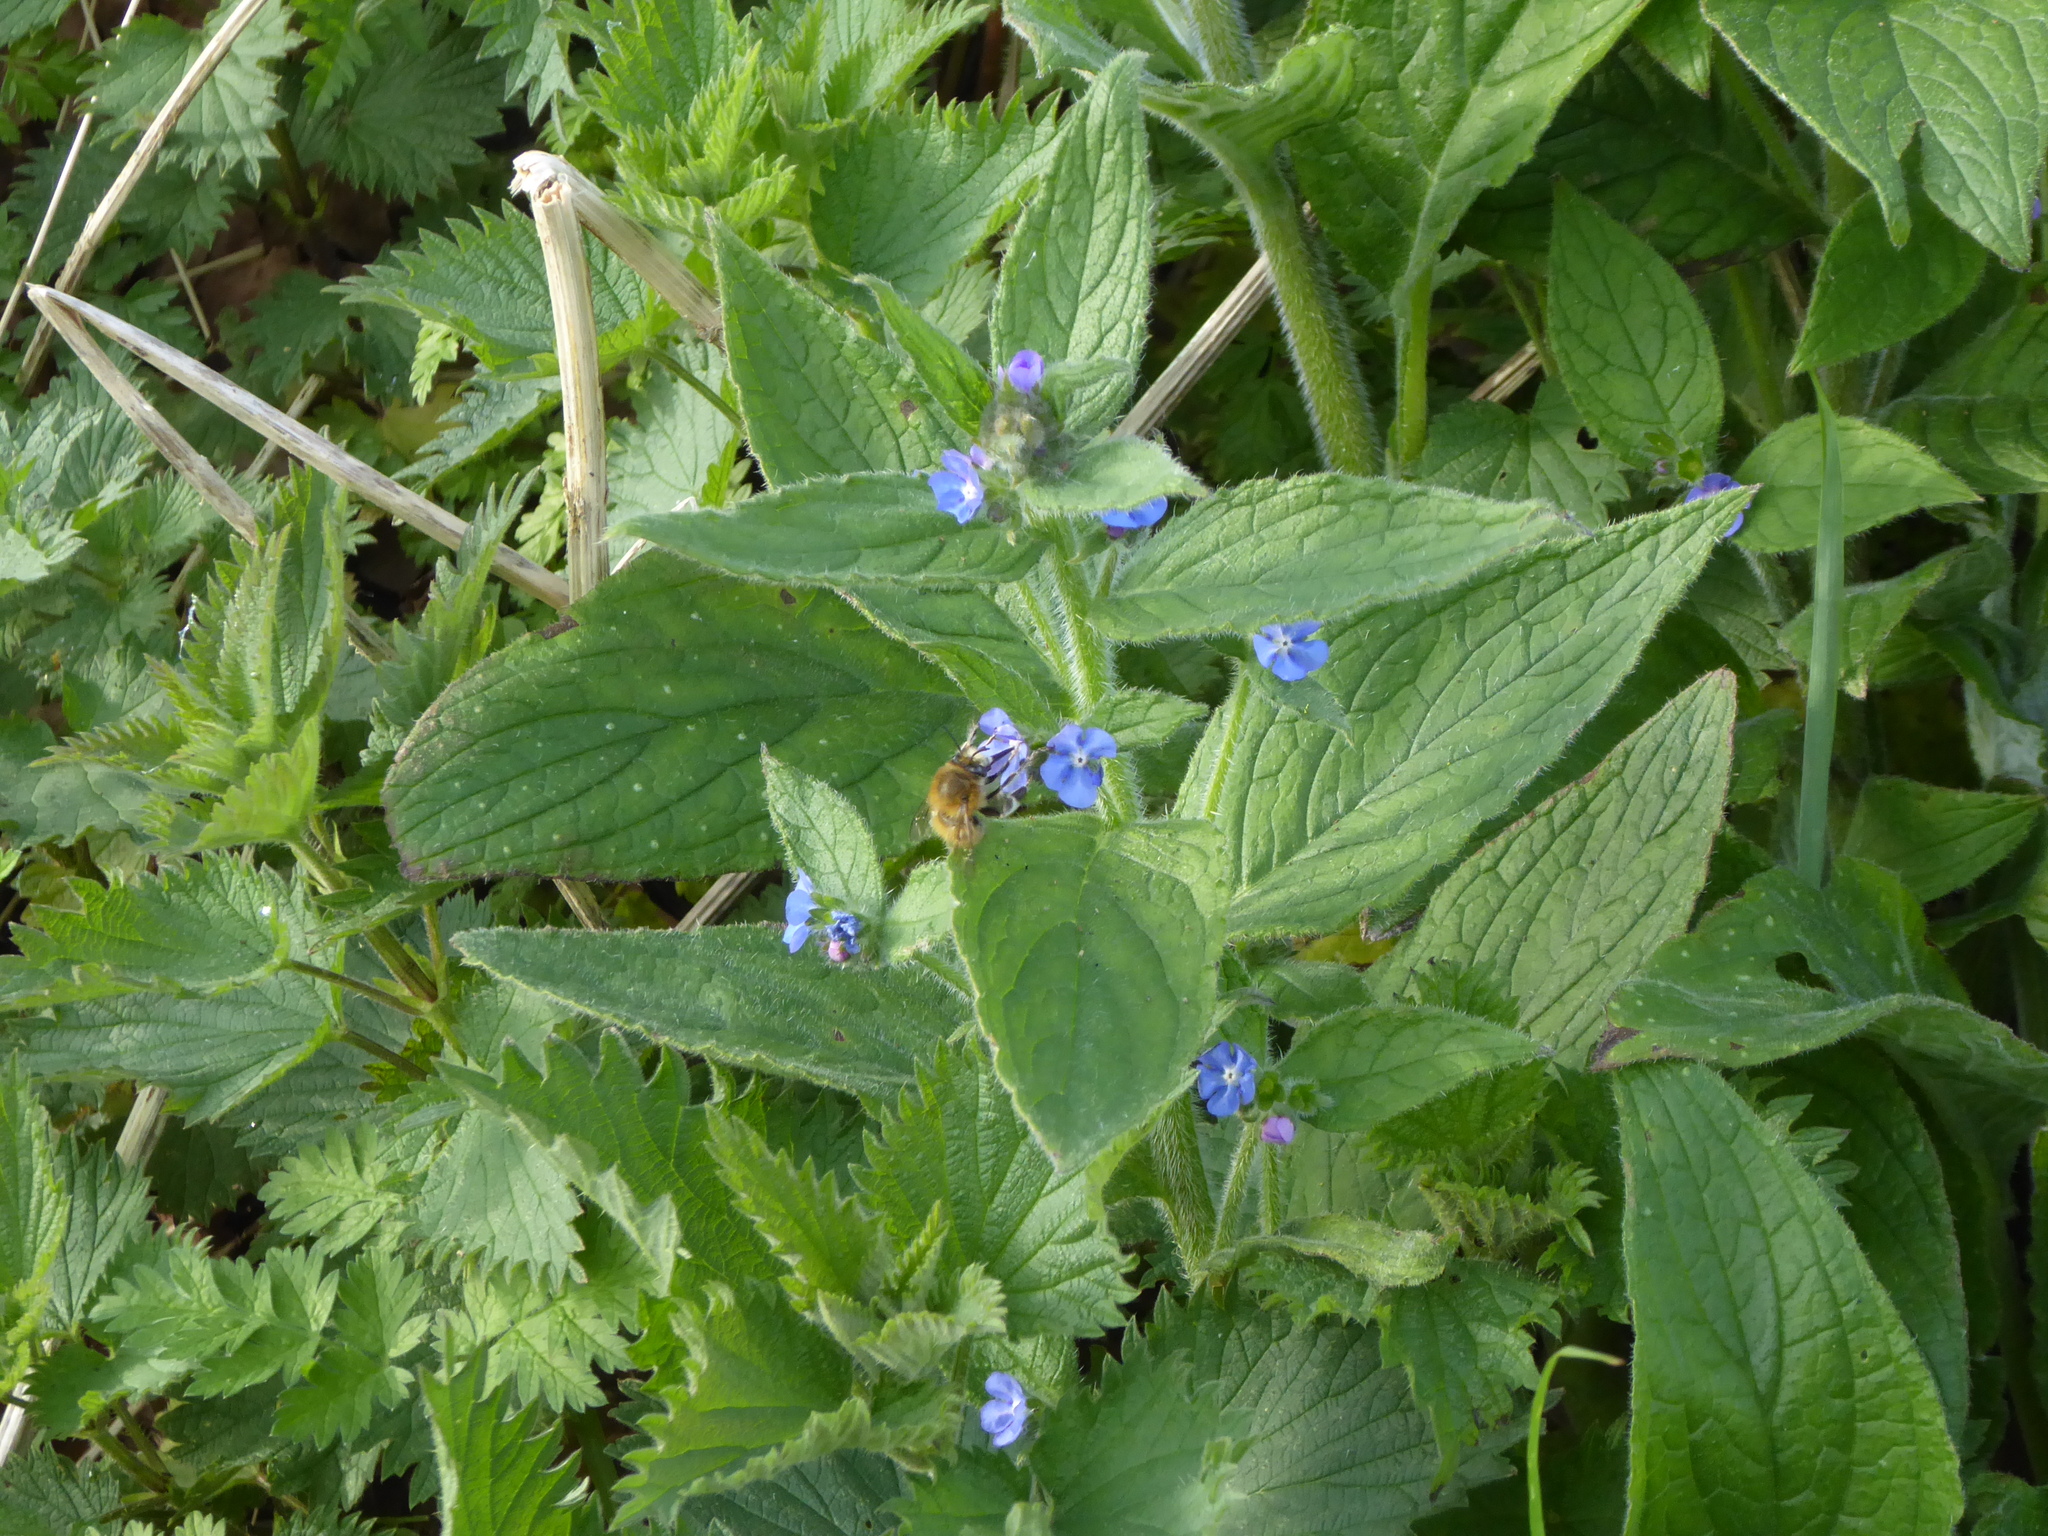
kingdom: Animalia
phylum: Arthropoda
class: Insecta
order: Hymenoptera
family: Apidae
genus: Anthophora
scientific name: Anthophora plumipes
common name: Hairy-footed flower bee
